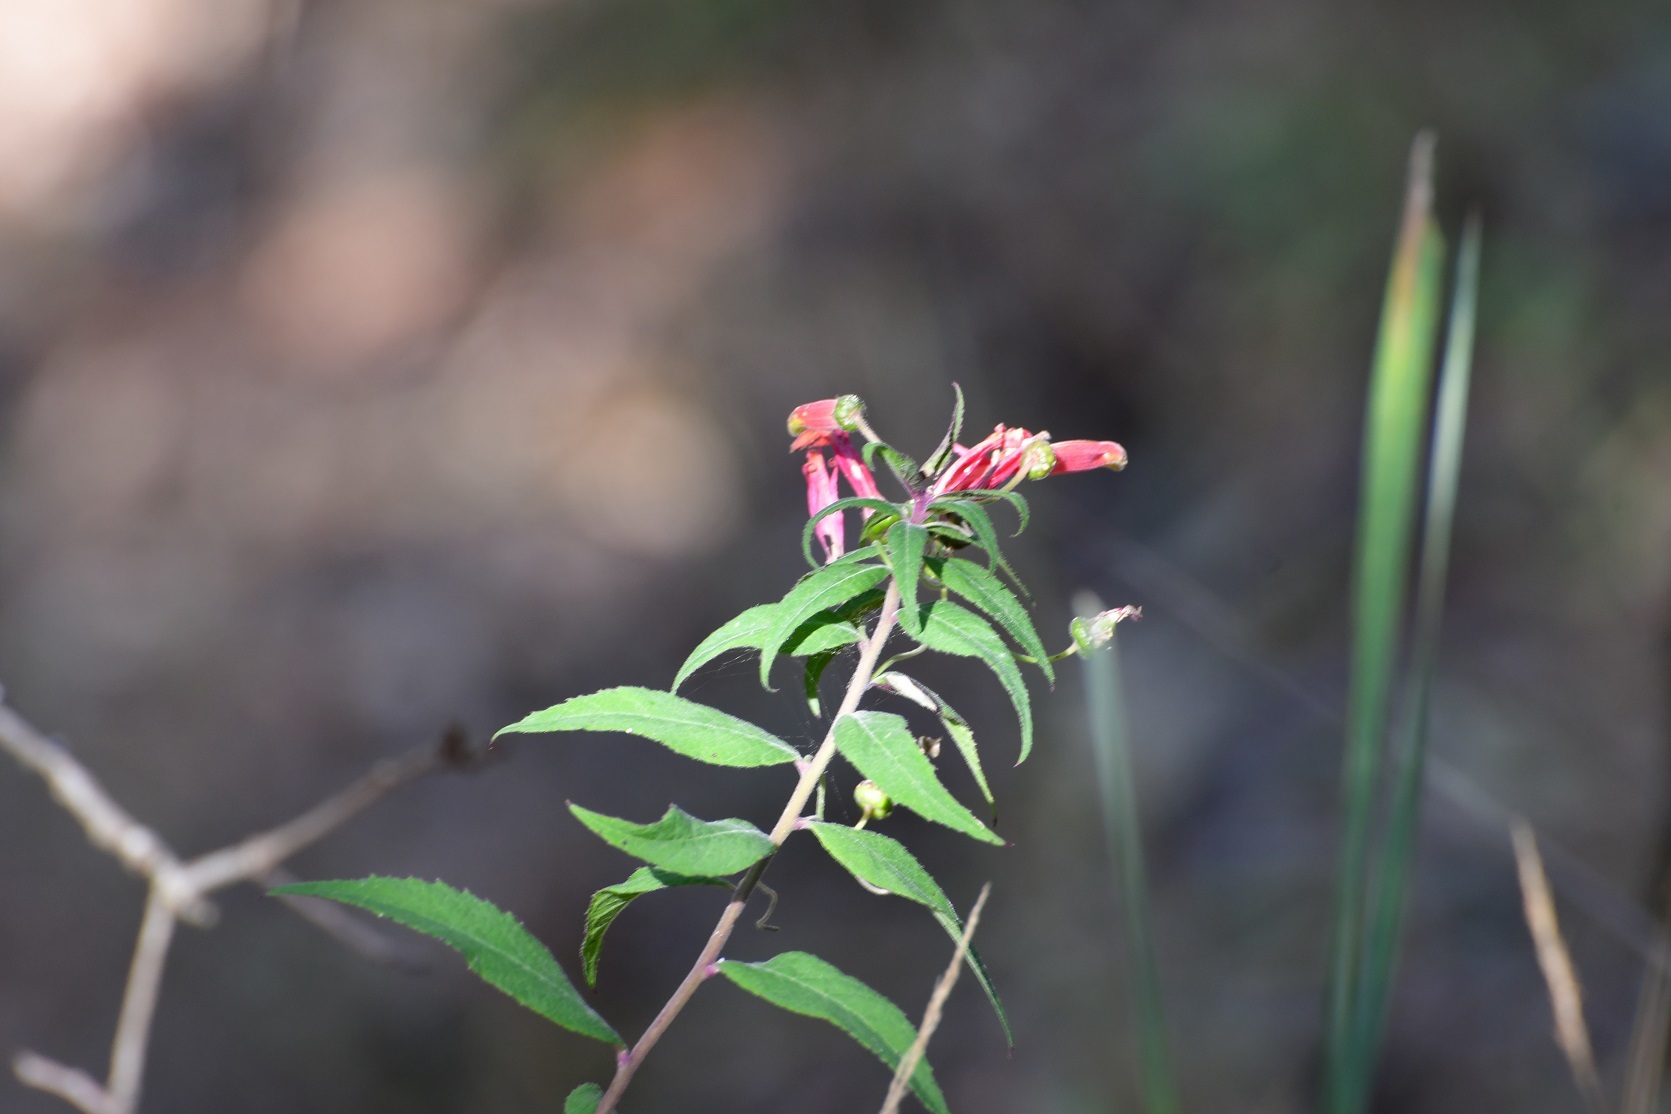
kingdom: Plantae
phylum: Tracheophyta
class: Magnoliopsida
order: Asterales
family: Campanulaceae
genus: Lobelia
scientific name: Lobelia laxiflora
